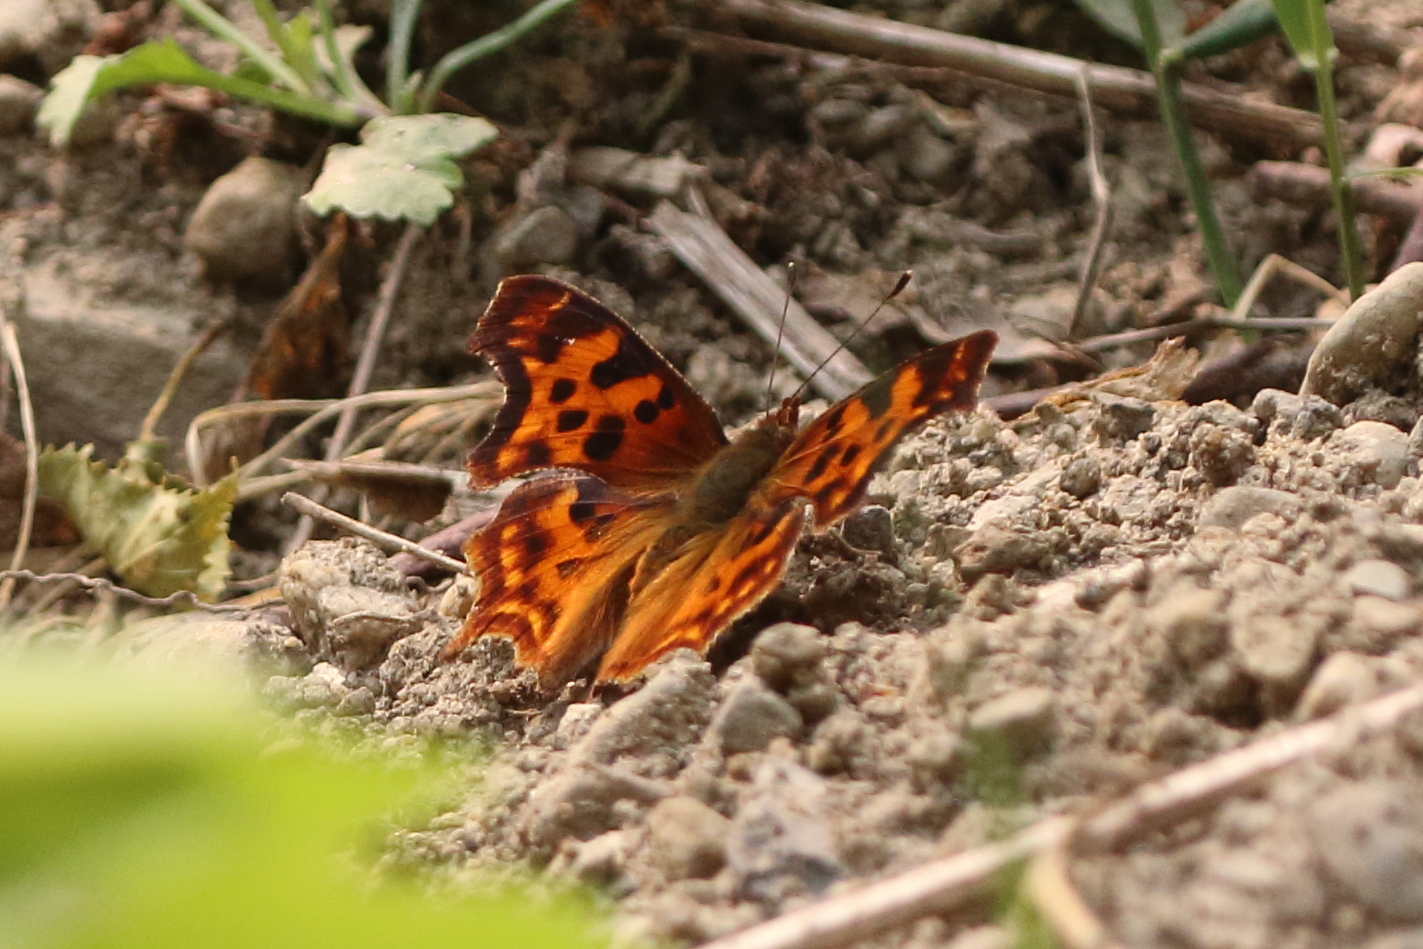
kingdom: Animalia
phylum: Arthropoda
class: Insecta
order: Lepidoptera
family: Nymphalidae
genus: Polygonia
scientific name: Polygonia satyrus
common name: Satyr angle wing
